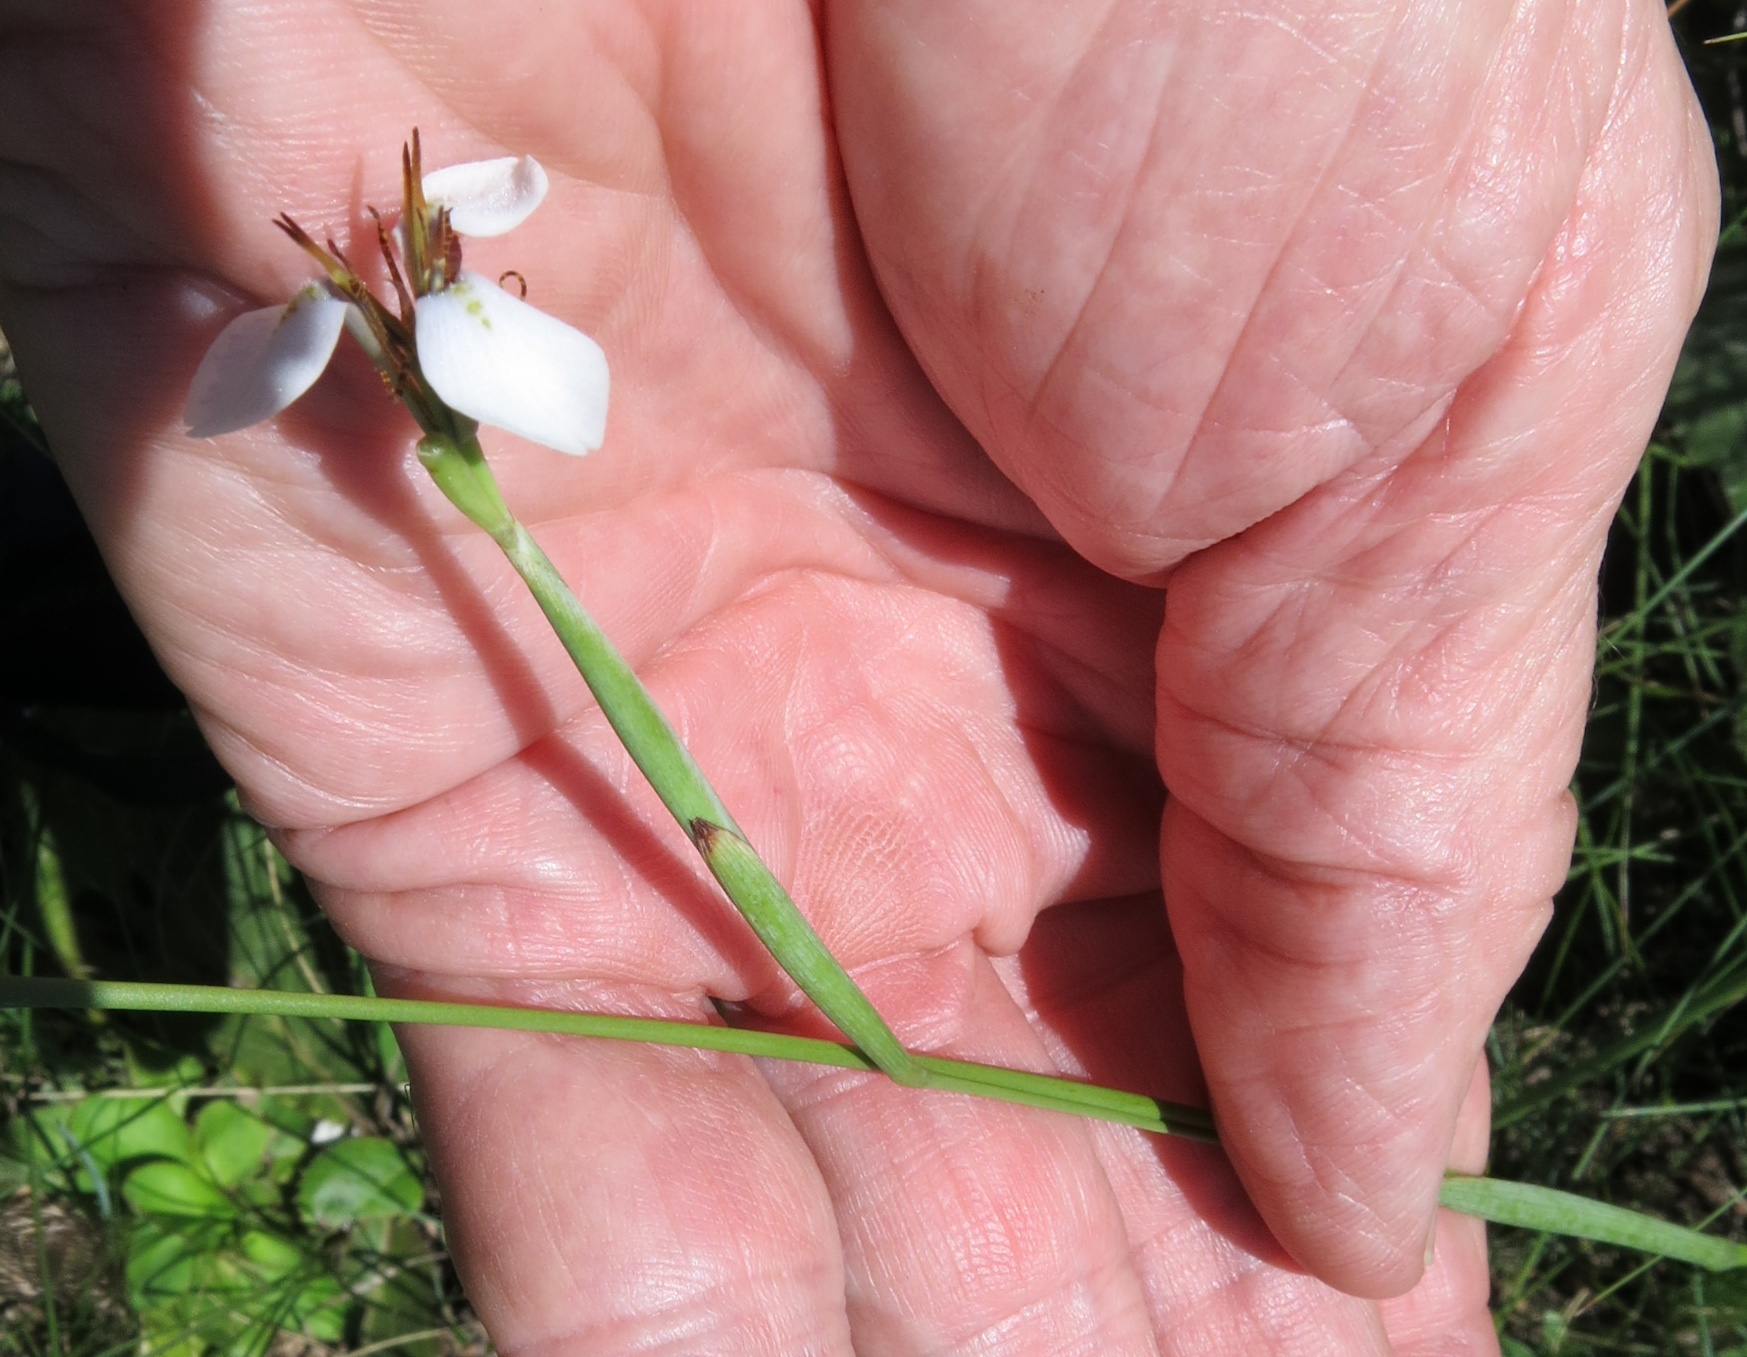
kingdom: Plantae
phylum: Tracheophyta
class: Liliopsida
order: Asparagales
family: Iridaceae
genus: Moraea
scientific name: Moraea brevistyla
